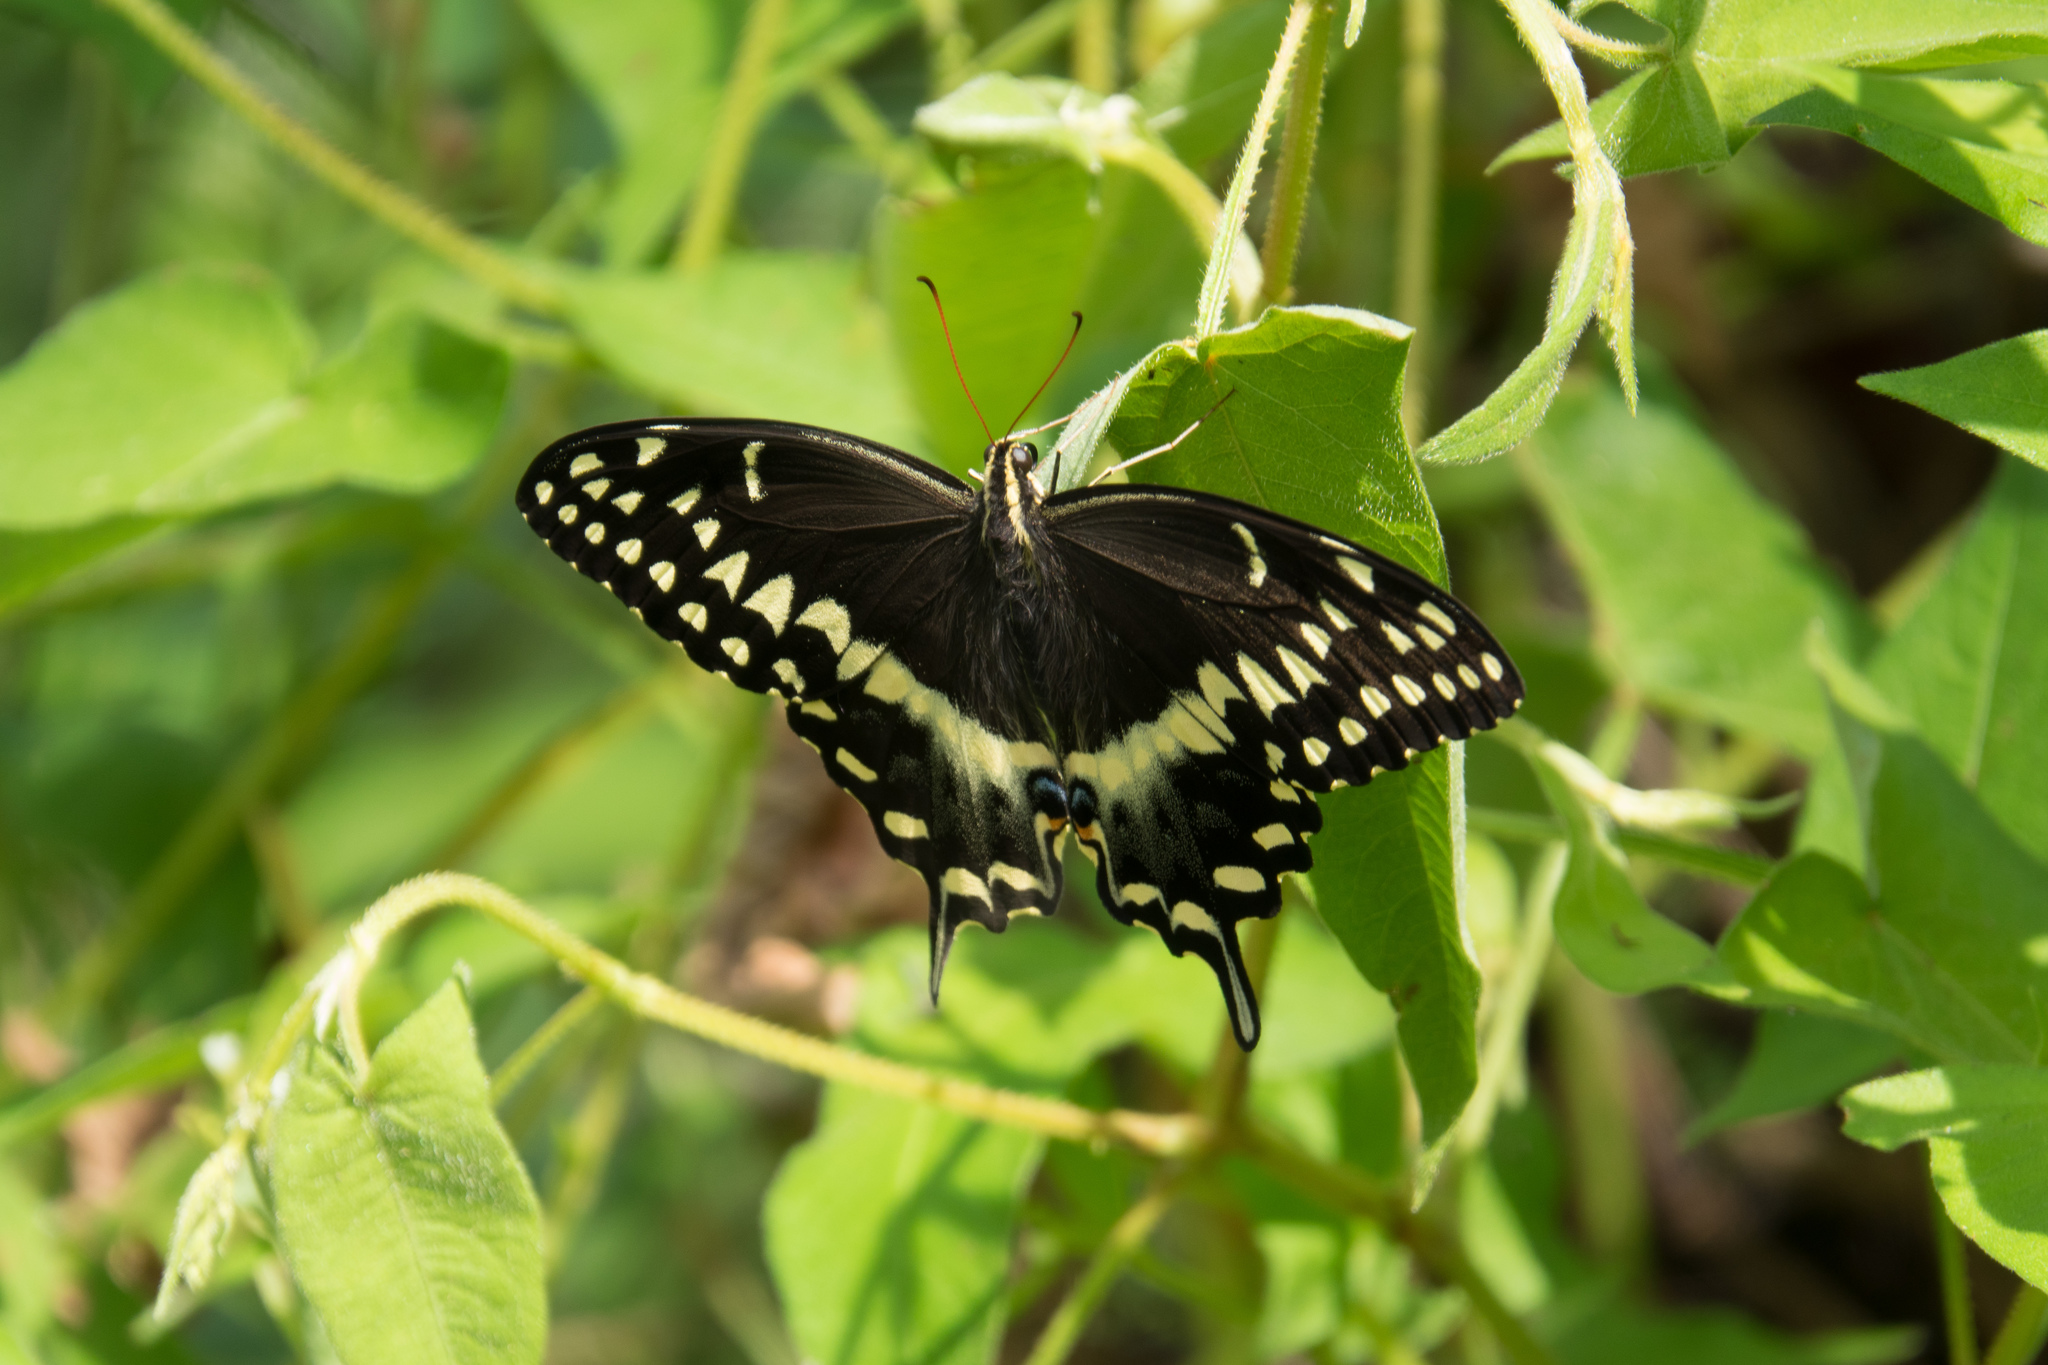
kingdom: Animalia
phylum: Arthropoda
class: Insecta
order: Lepidoptera
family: Papilionidae
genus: Papilio
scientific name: Papilio palamedes
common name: Palamedes swallowtail
